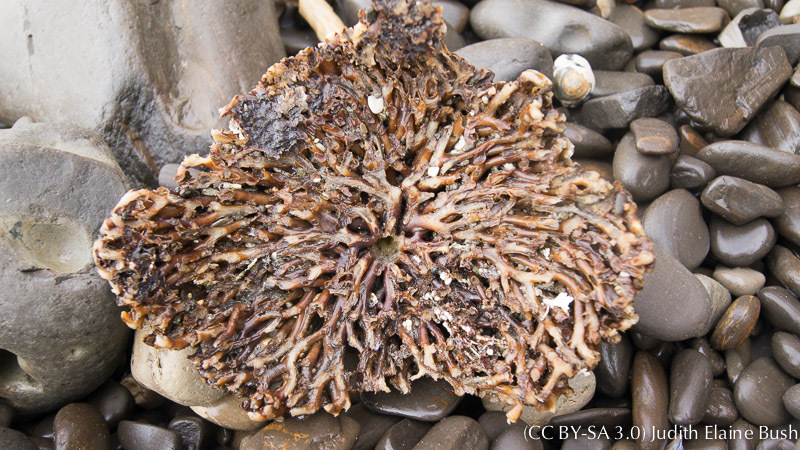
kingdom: Chromista
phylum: Ochrophyta
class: Phaeophyceae
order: Laminariales
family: Laminariaceae
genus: Nereocystis
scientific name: Nereocystis luetkeana
